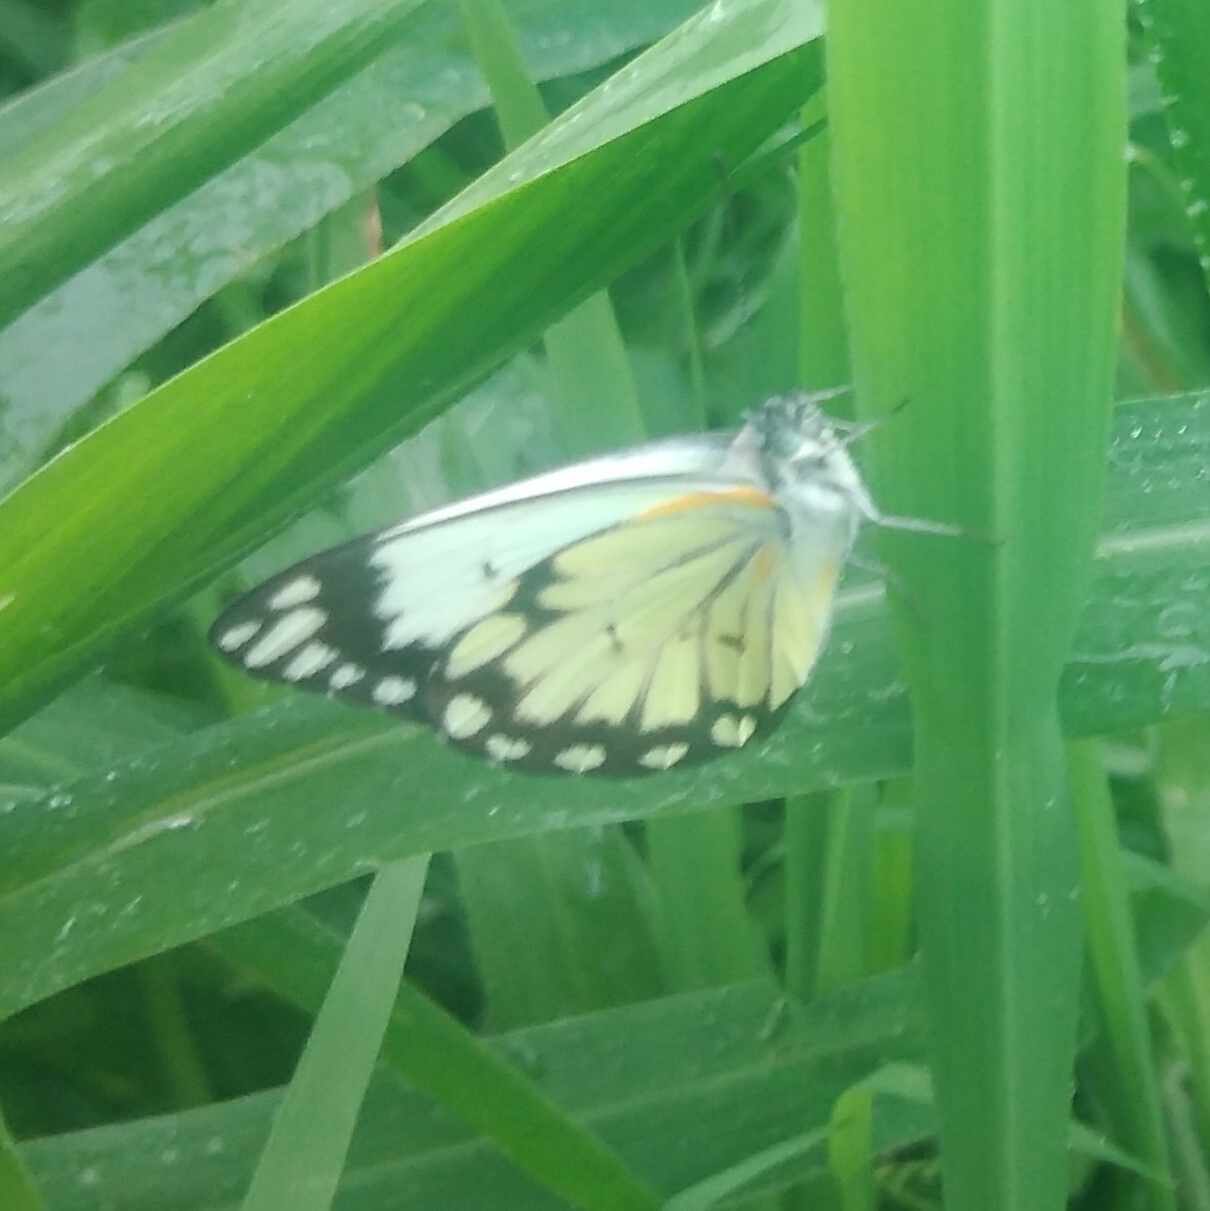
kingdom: Animalia
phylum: Arthropoda
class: Insecta
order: Lepidoptera
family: Pieridae
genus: Belenois
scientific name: Belenois creona
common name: African caper white
